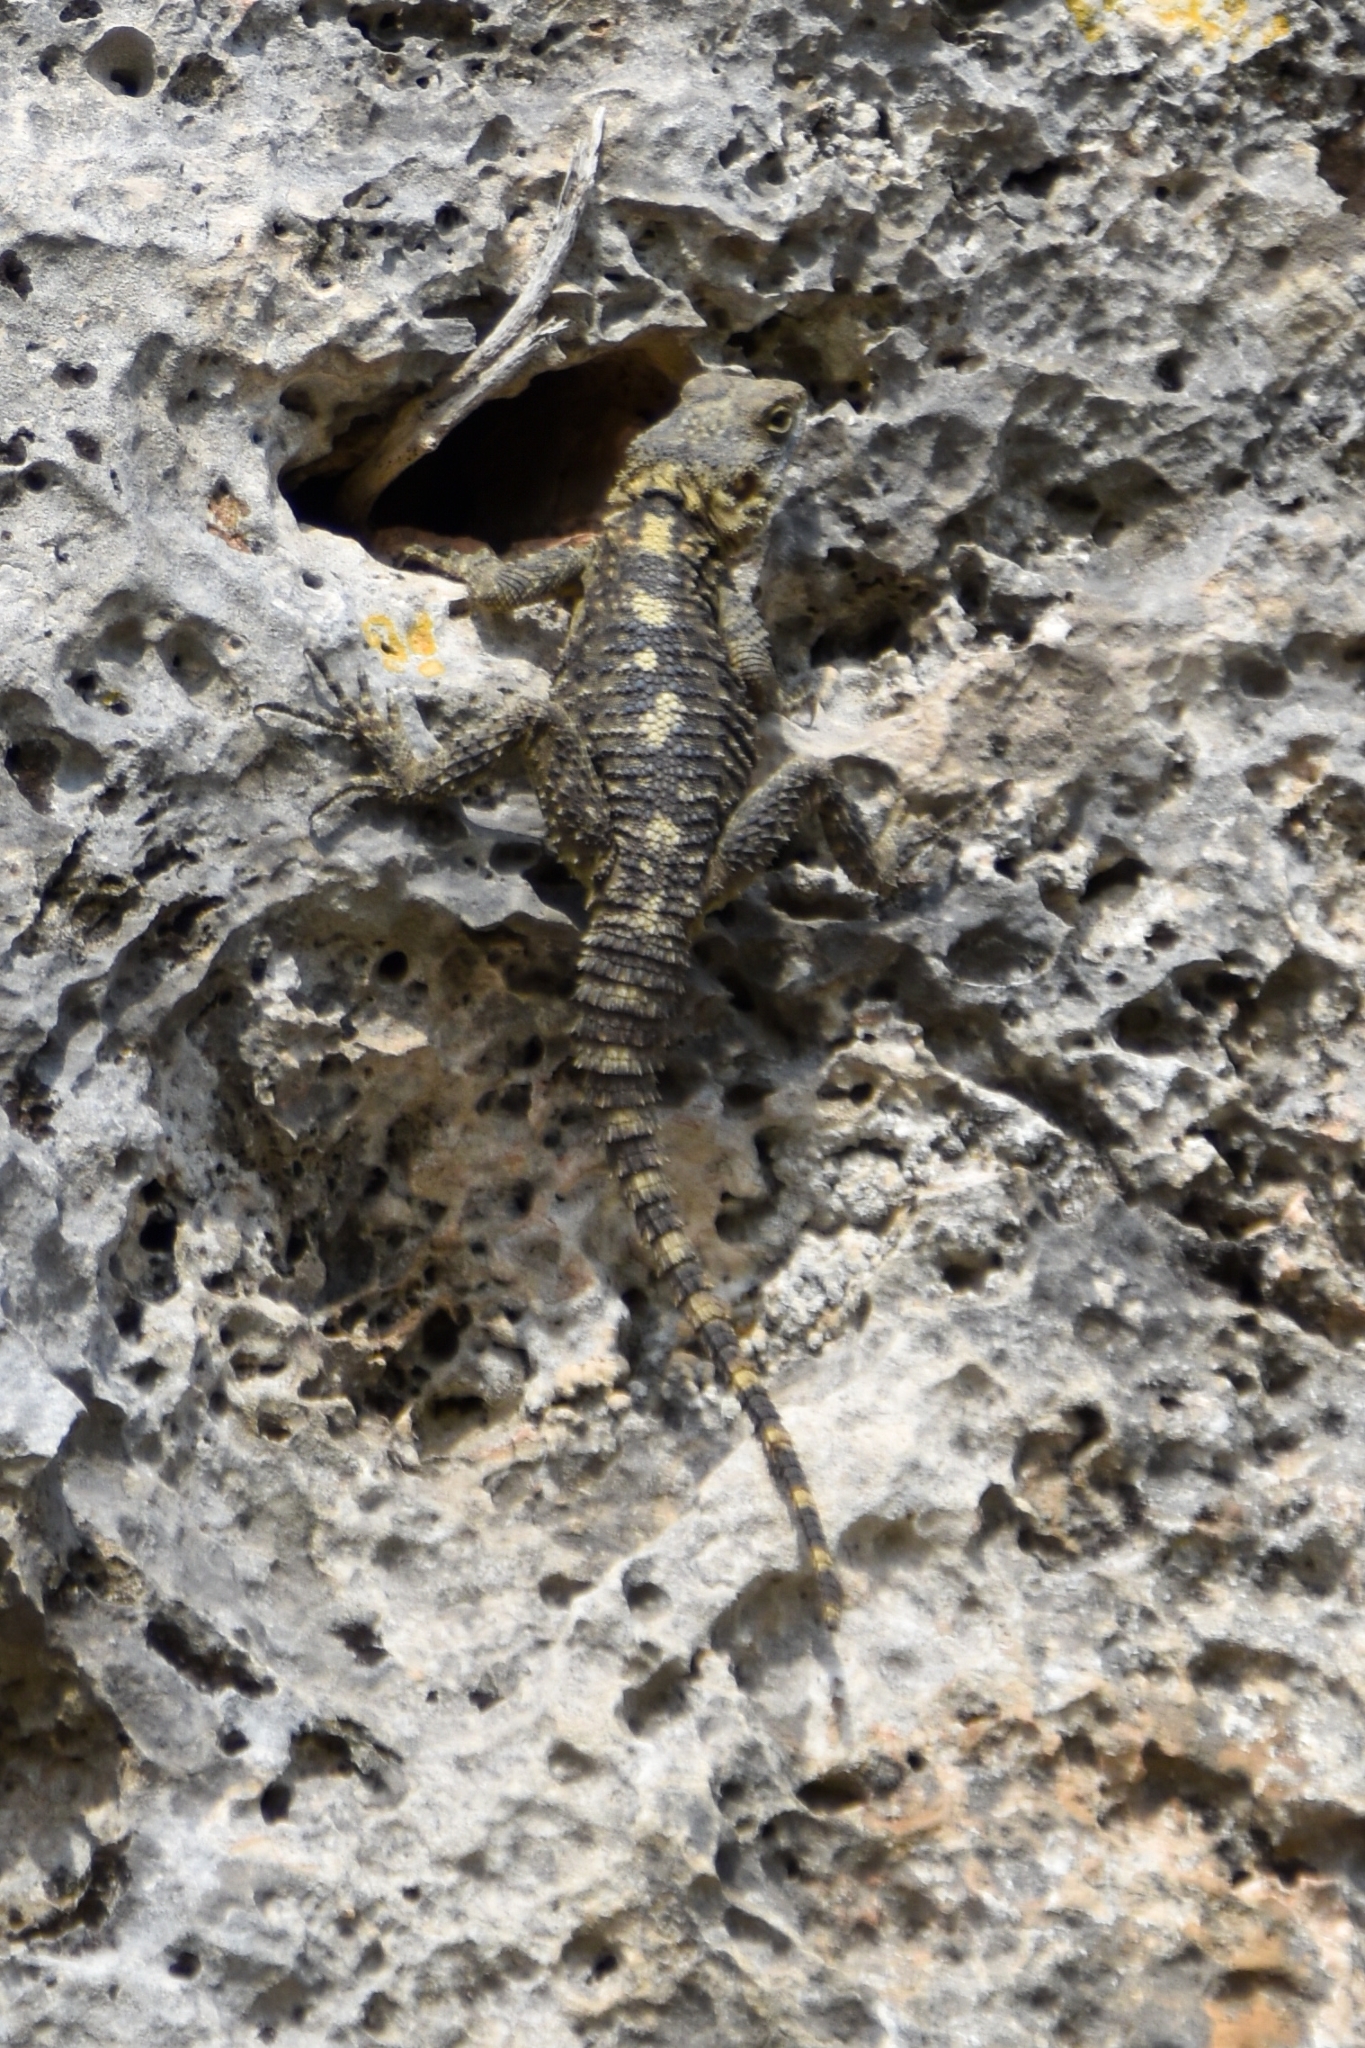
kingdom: Animalia
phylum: Chordata
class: Squamata
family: Agamidae
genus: Stellagama
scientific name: Stellagama stellio
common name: Starred agama
